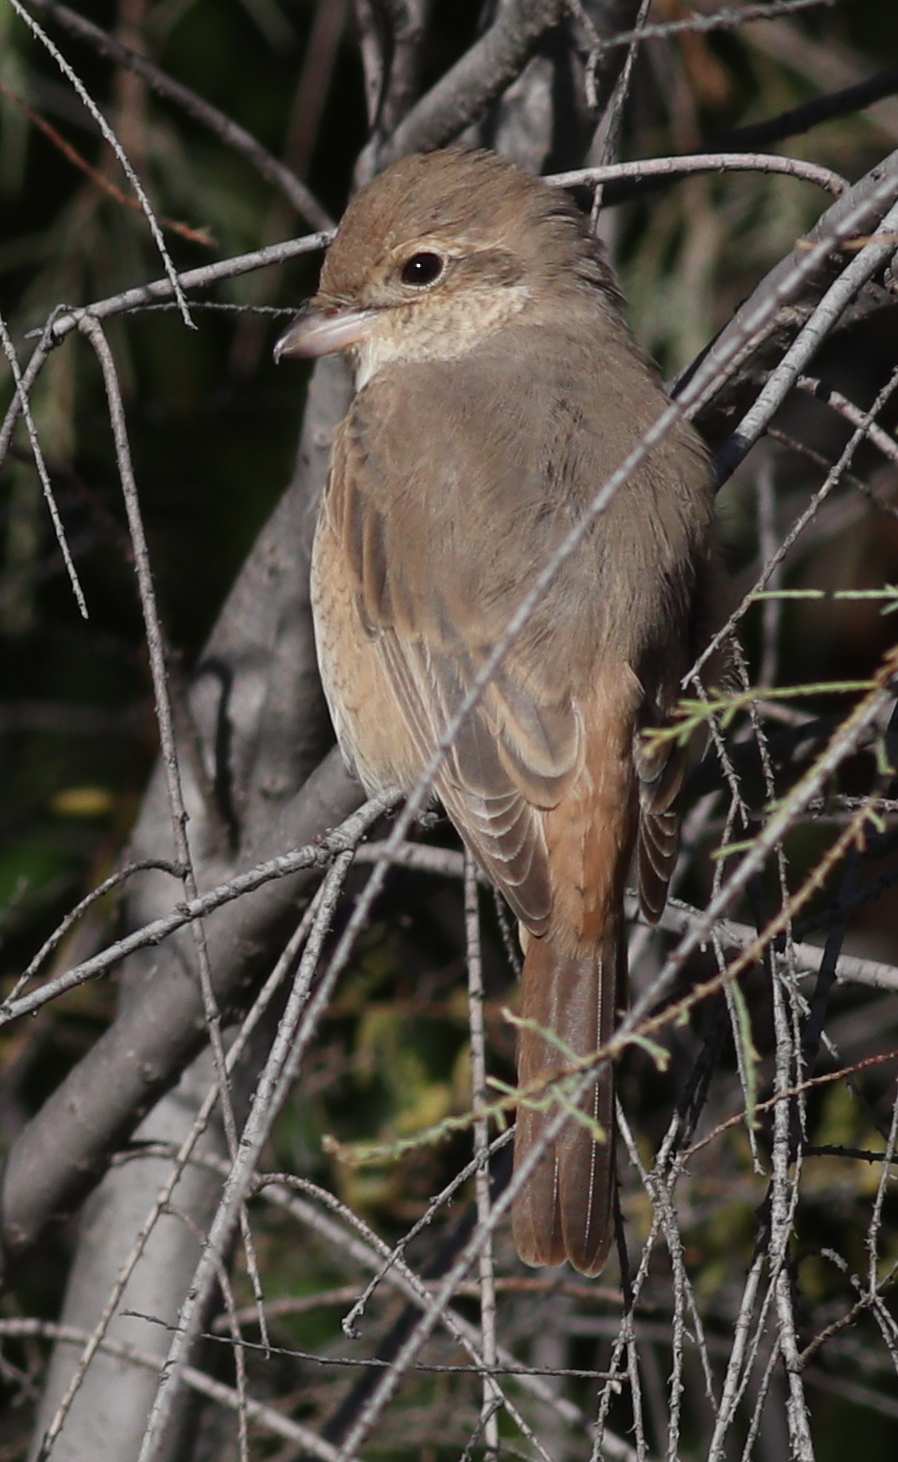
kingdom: Animalia
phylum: Chordata
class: Aves
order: Passeriformes
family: Laniidae
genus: Lanius
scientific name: Lanius isabellinus
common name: Isabelline shrike
